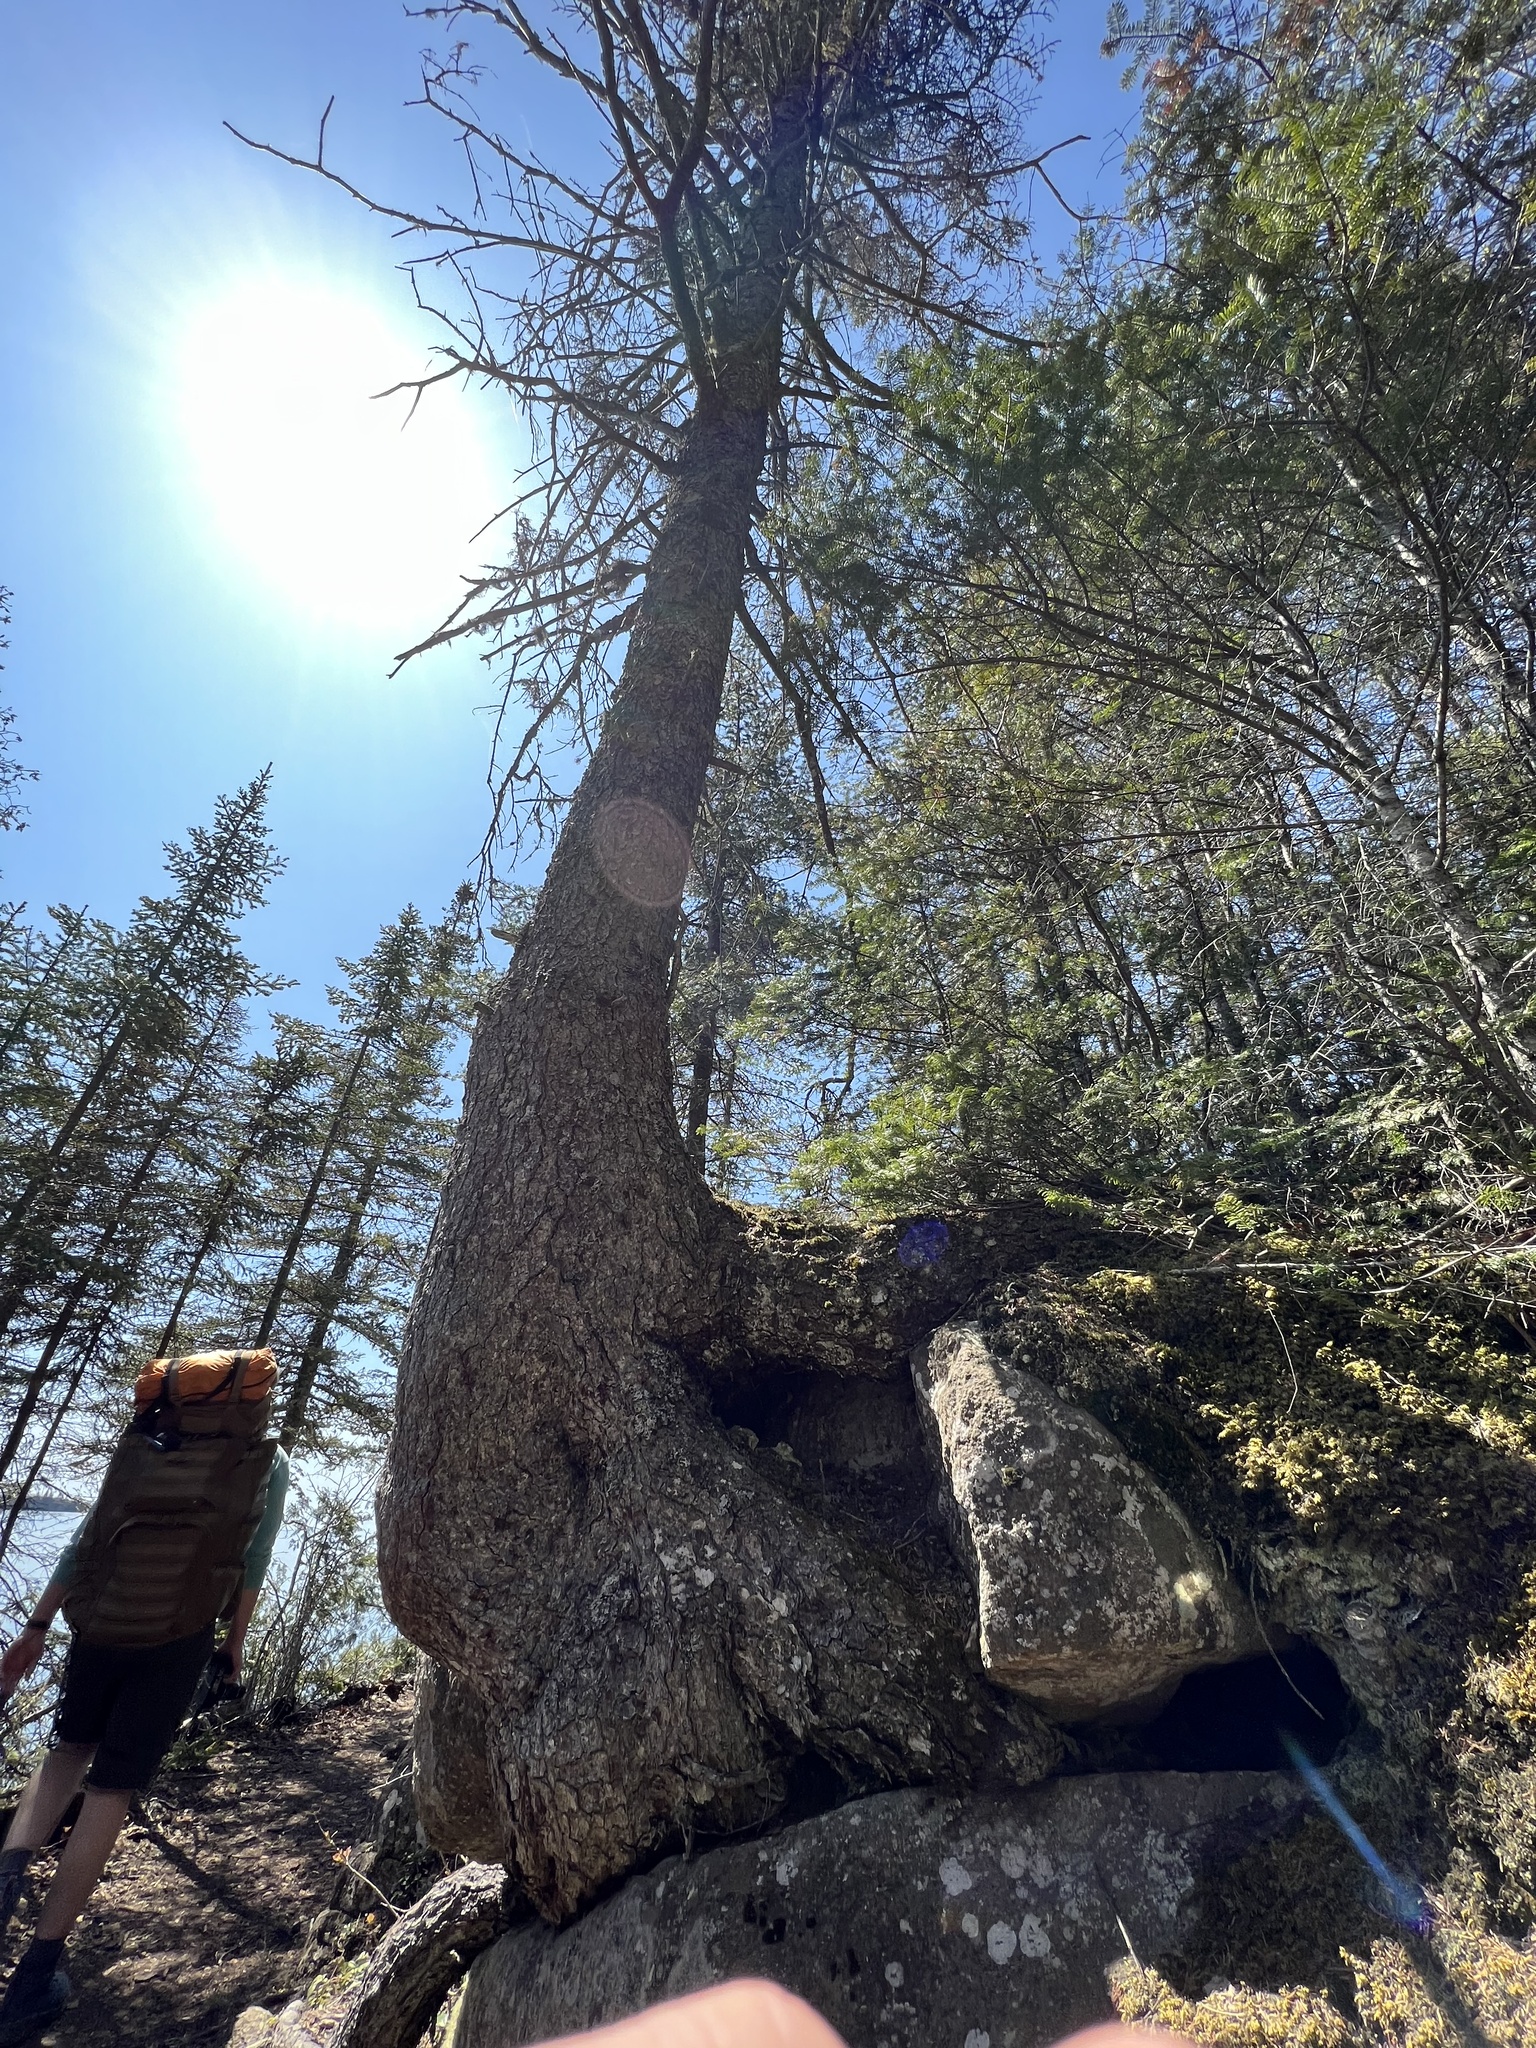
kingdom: Plantae
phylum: Tracheophyta
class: Pinopsida
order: Pinales
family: Pinaceae
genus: Picea
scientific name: Picea glauca
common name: White spruce
